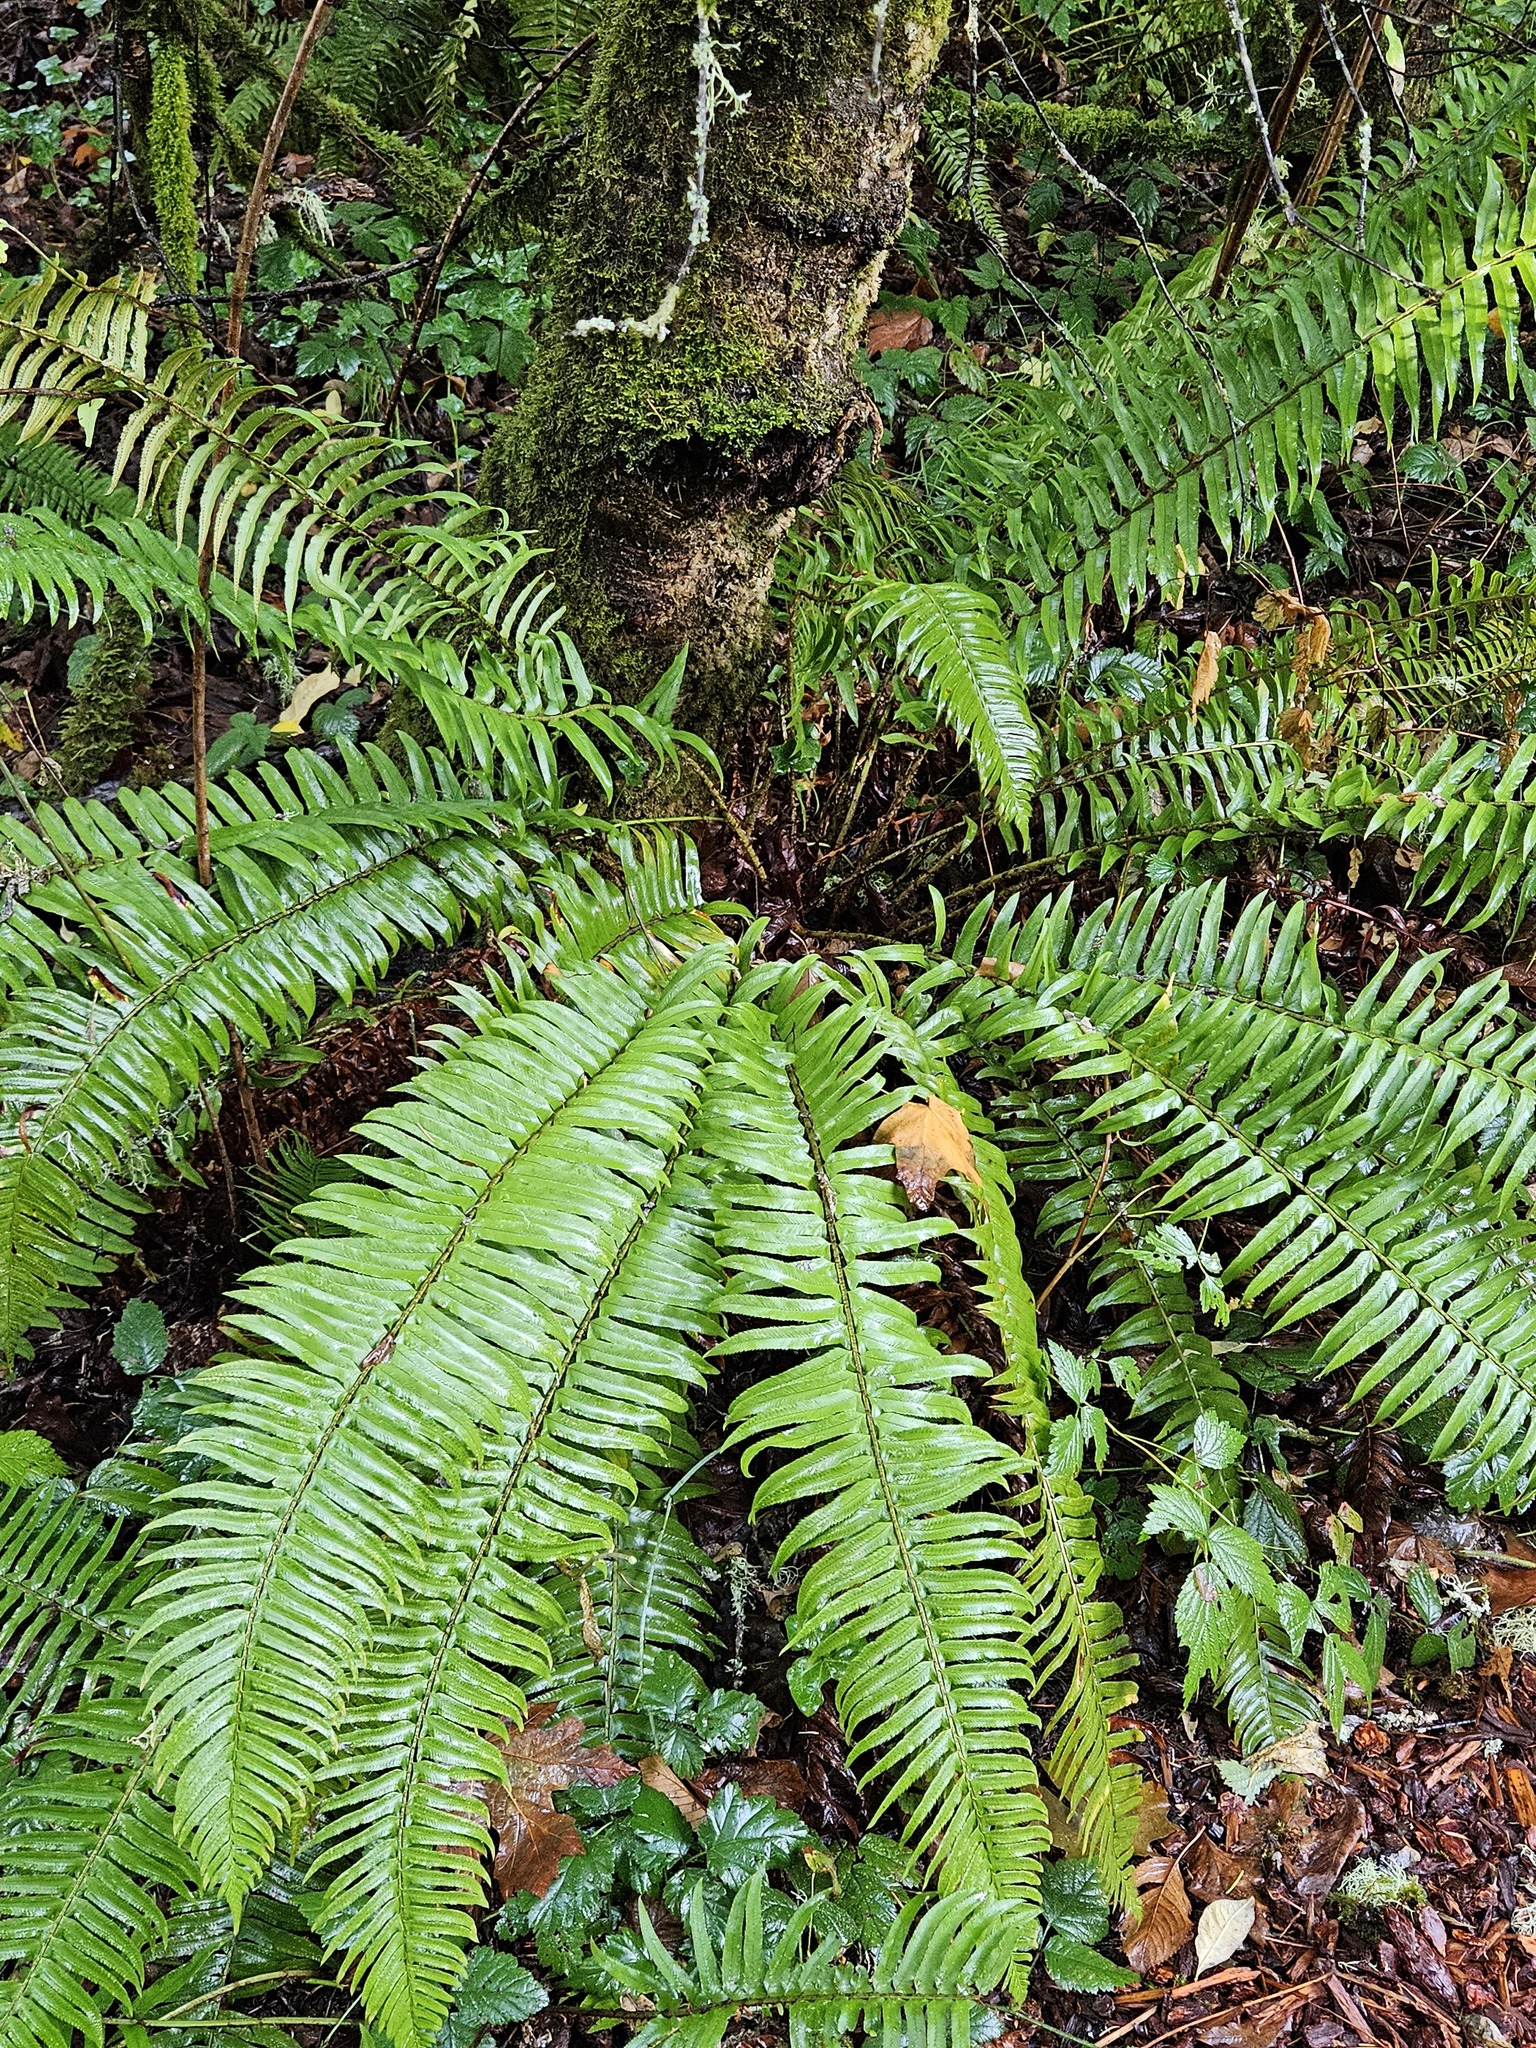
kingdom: Plantae
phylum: Tracheophyta
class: Polypodiopsida
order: Polypodiales
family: Dryopteridaceae
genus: Polystichum
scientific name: Polystichum munitum
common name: Western sword-fern
